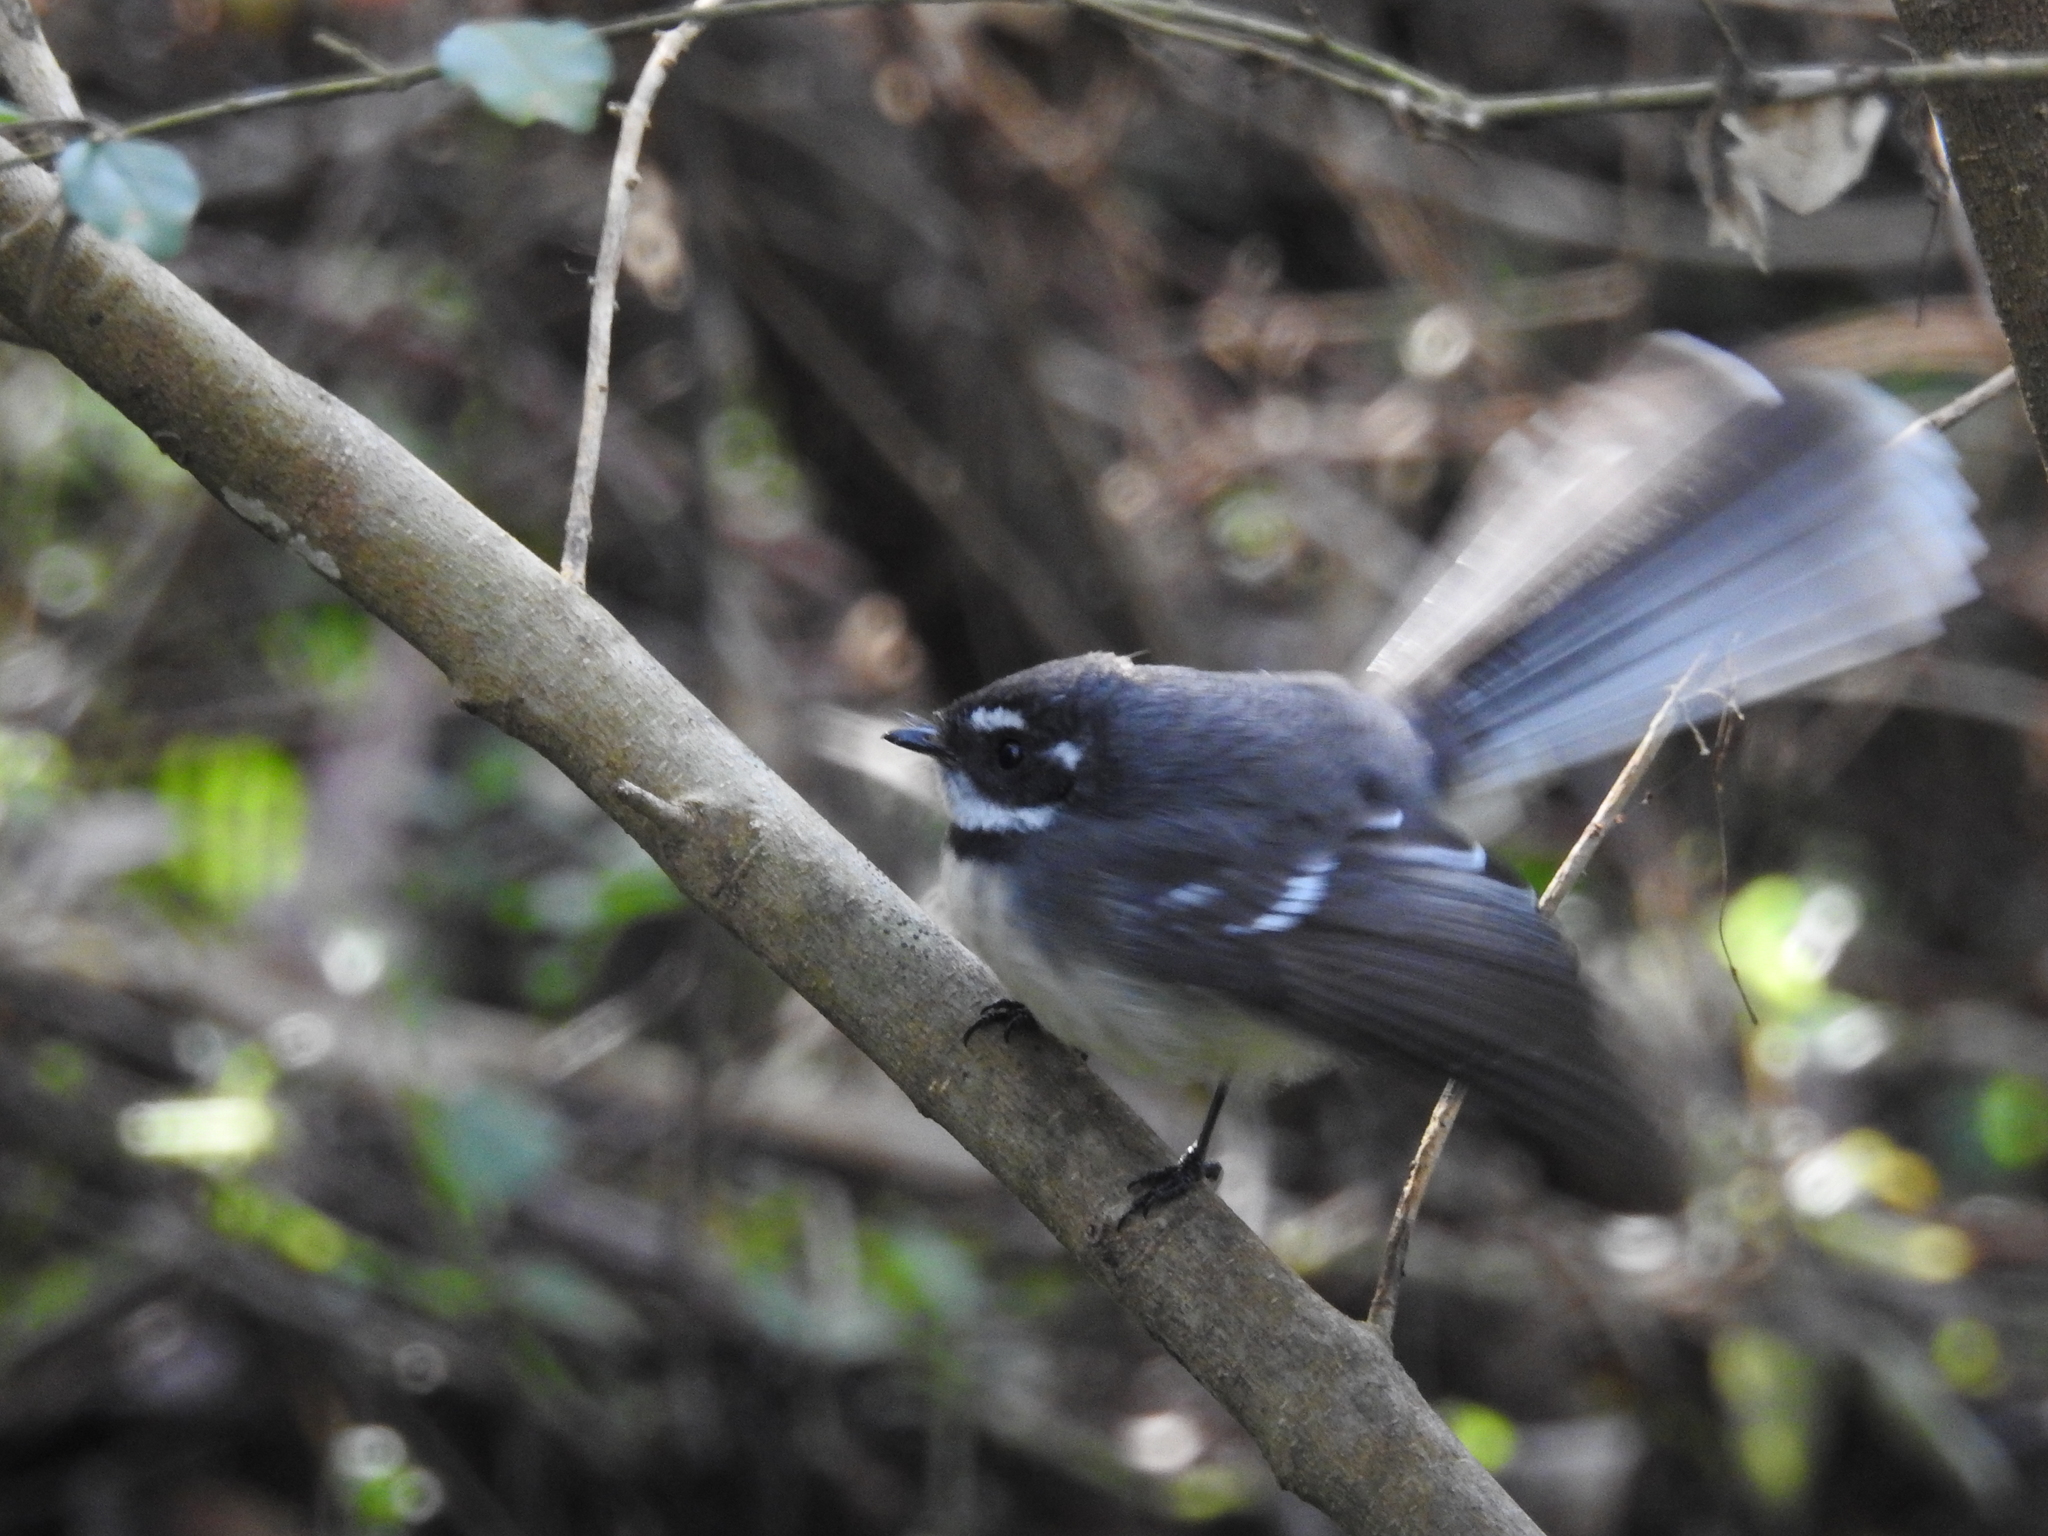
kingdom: Animalia
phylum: Chordata
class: Aves
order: Passeriformes
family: Rhipiduridae
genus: Rhipidura
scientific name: Rhipidura albiscapa
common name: Grey fantail
